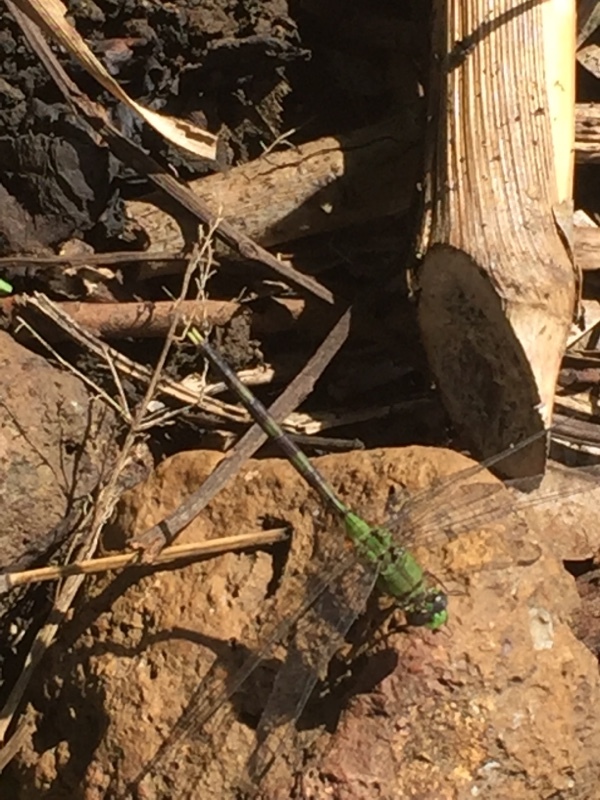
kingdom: Animalia
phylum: Arthropoda
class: Insecta
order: Odonata
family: Libellulidae
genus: Erythemis
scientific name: Erythemis vesiculosa
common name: Great pondhawk
